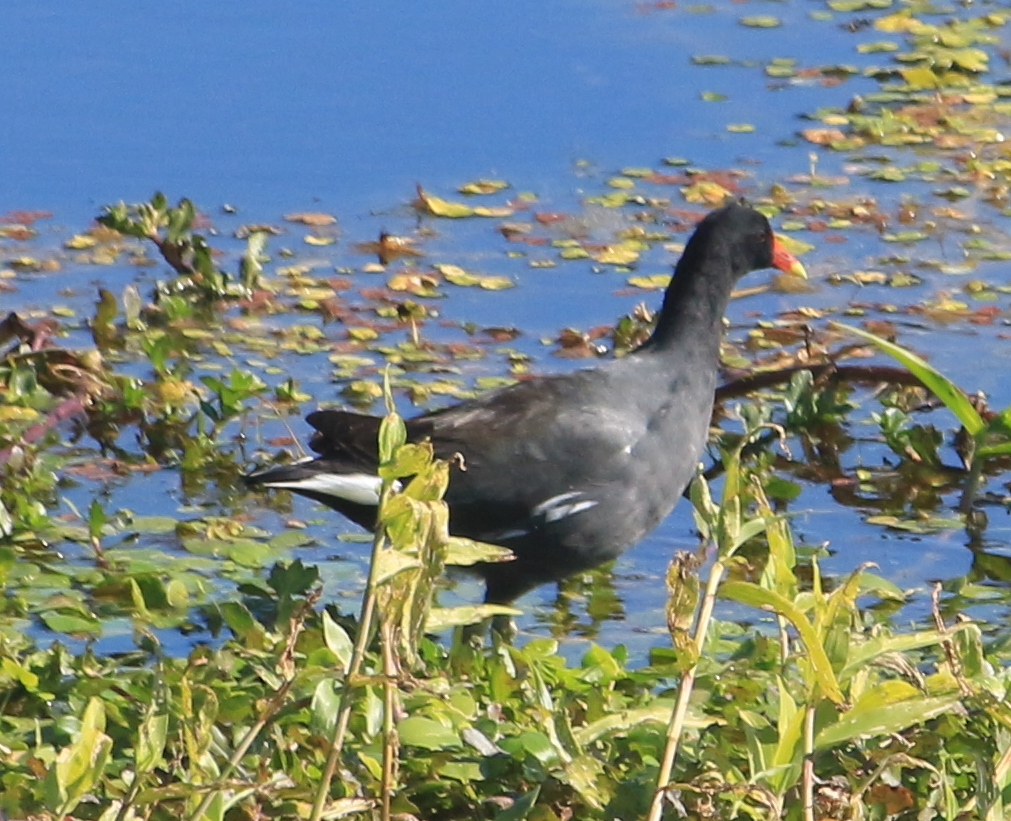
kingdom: Animalia
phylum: Chordata
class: Aves
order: Gruiformes
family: Rallidae
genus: Gallinula
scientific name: Gallinula chloropus
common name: Common moorhen
